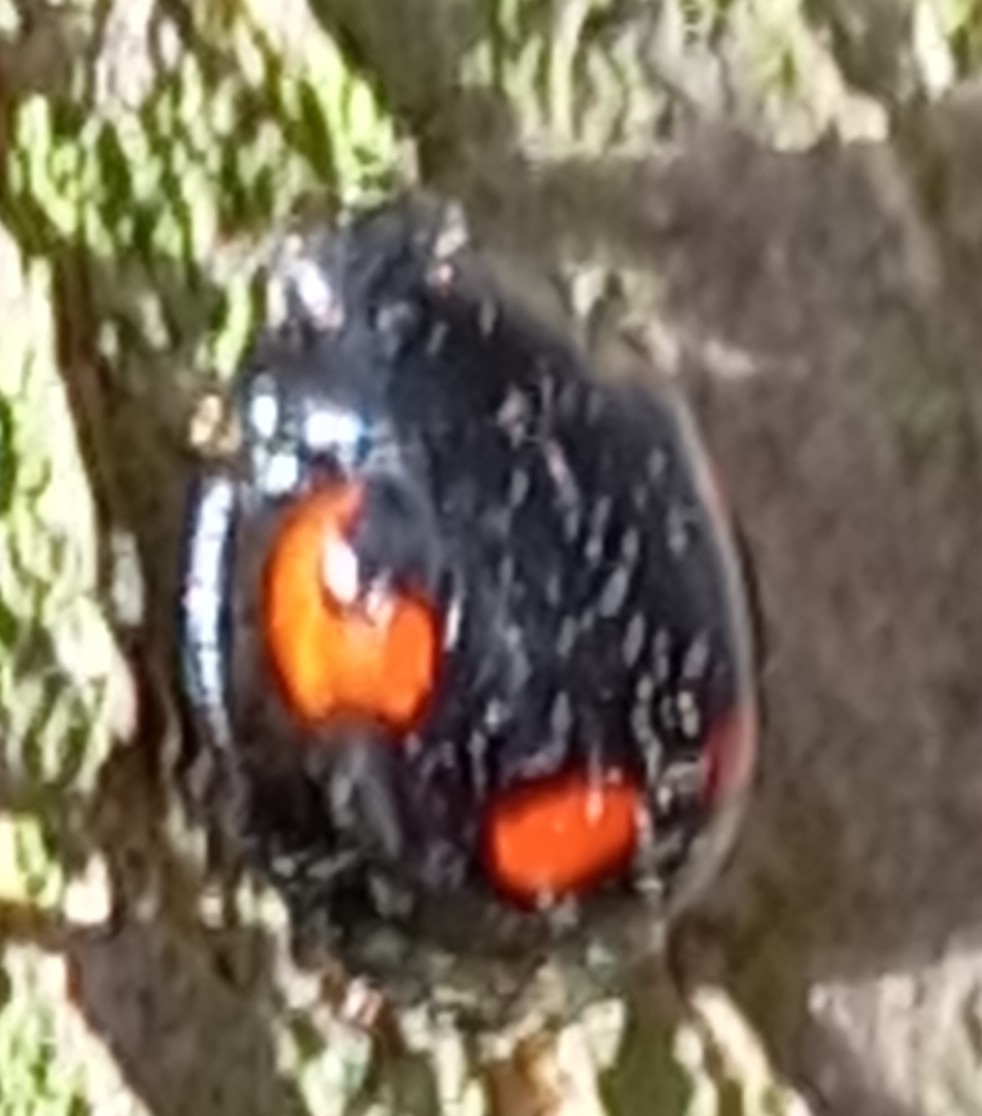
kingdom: Animalia
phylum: Arthropoda
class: Insecta
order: Coleoptera
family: Coccinellidae
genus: Brumus
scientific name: Brumus quadripustulatus
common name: Ladybird beetle
